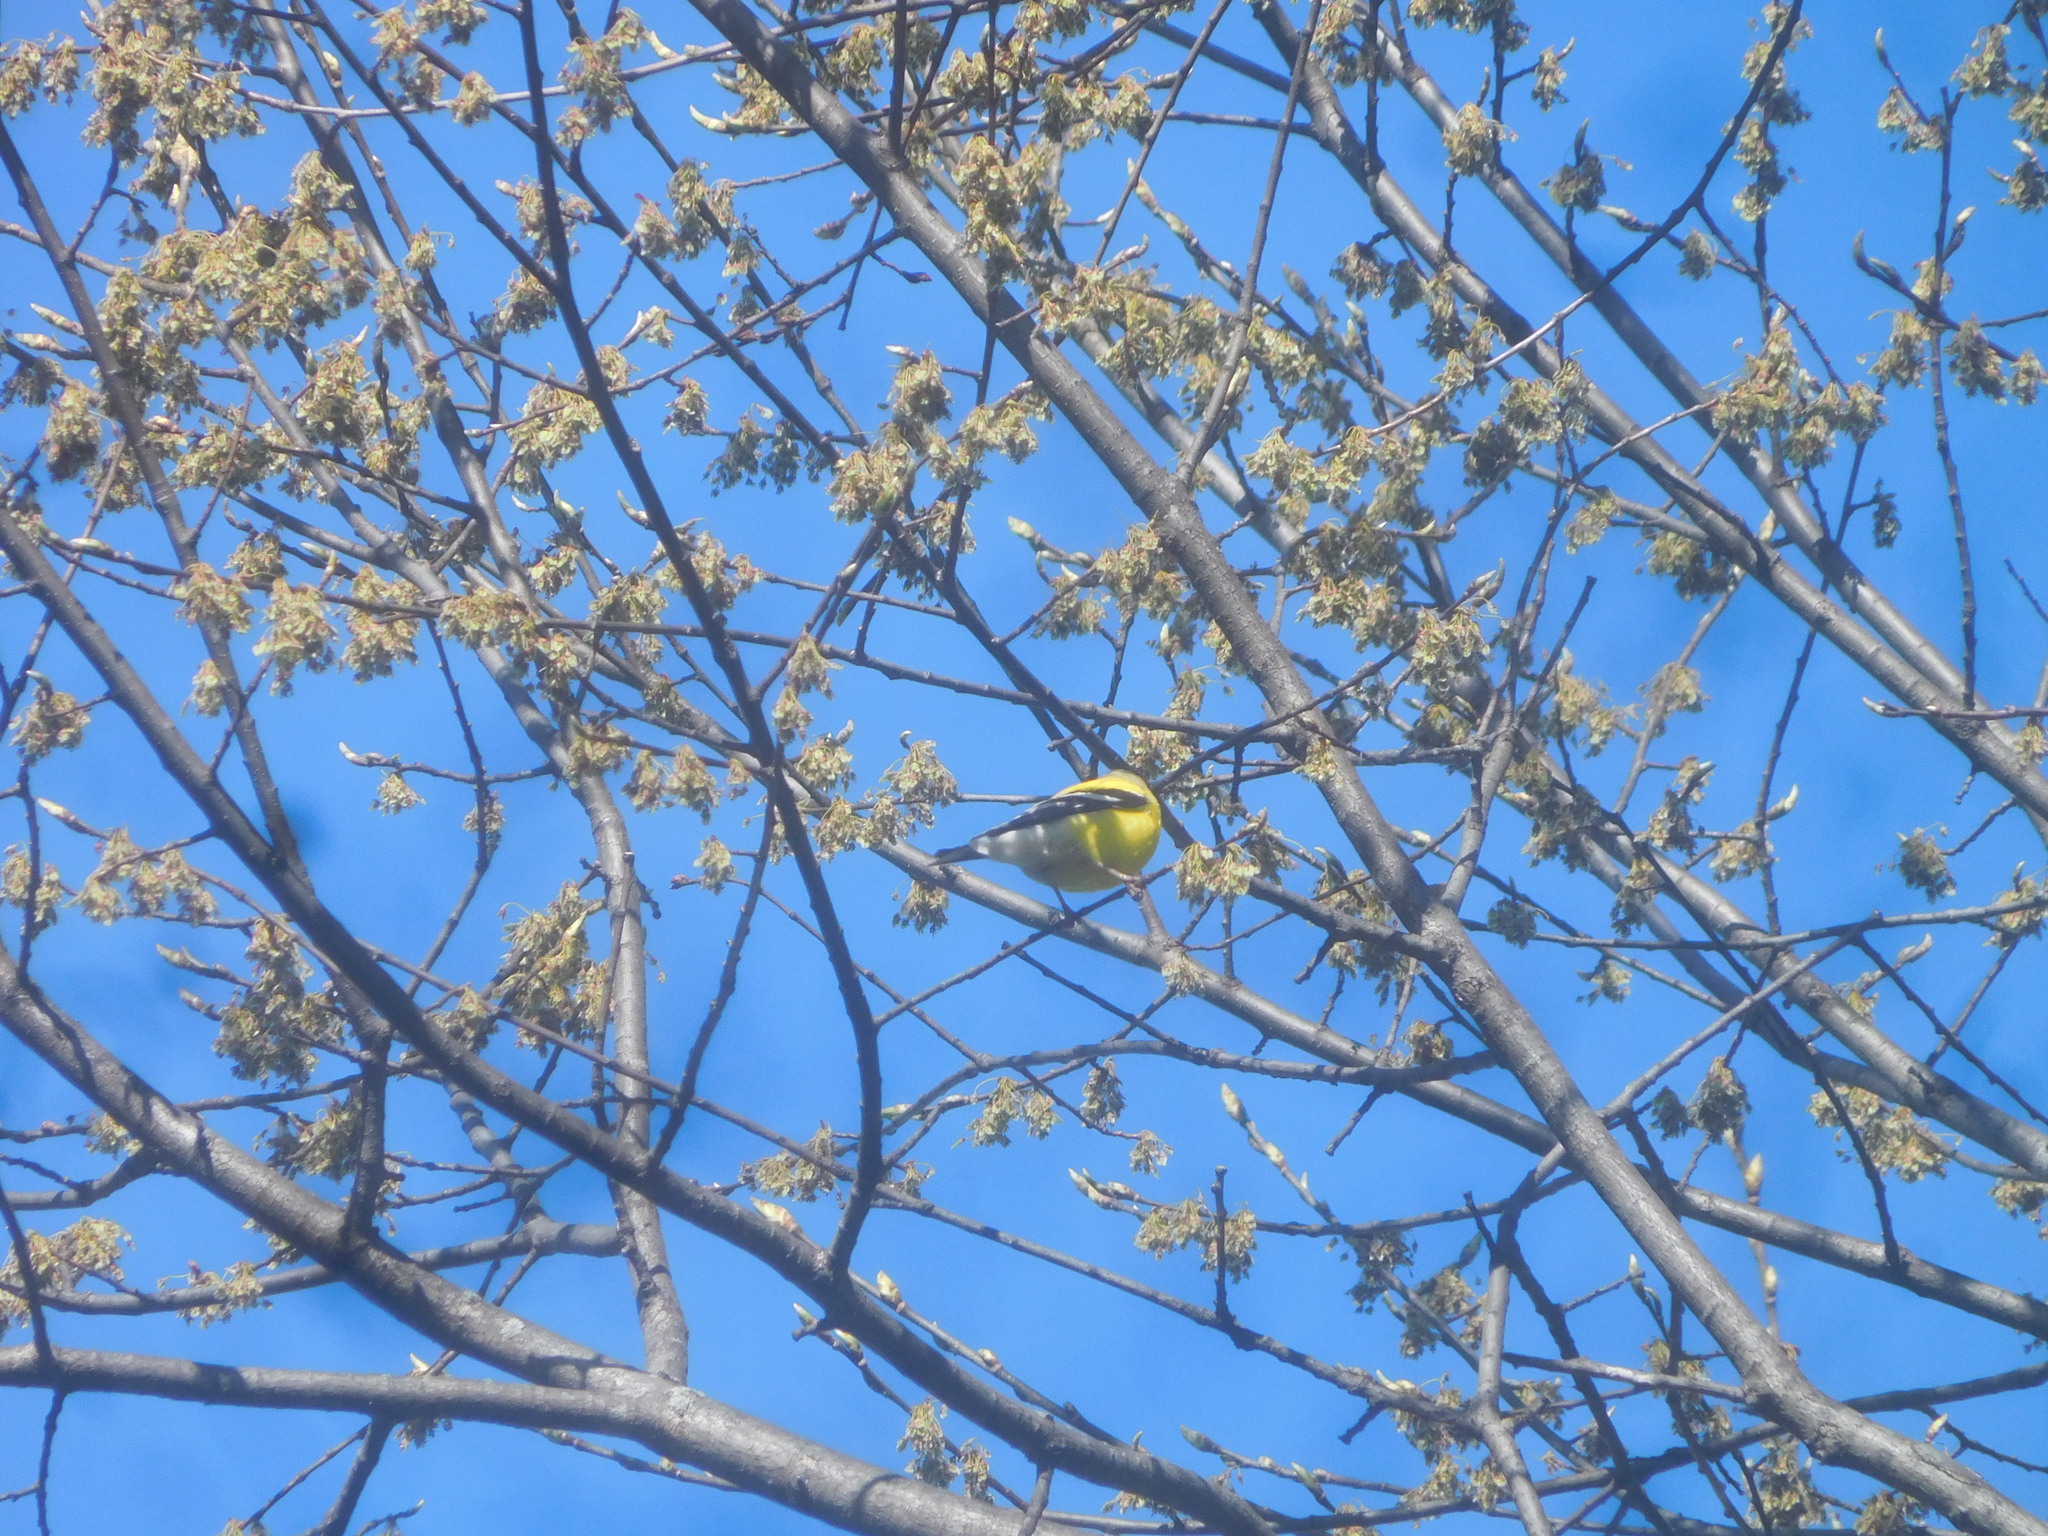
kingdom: Animalia
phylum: Chordata
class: Aves
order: Passeriformes
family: Fringillidae
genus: Spinus
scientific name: Spinus tristis
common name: American goldfinch
